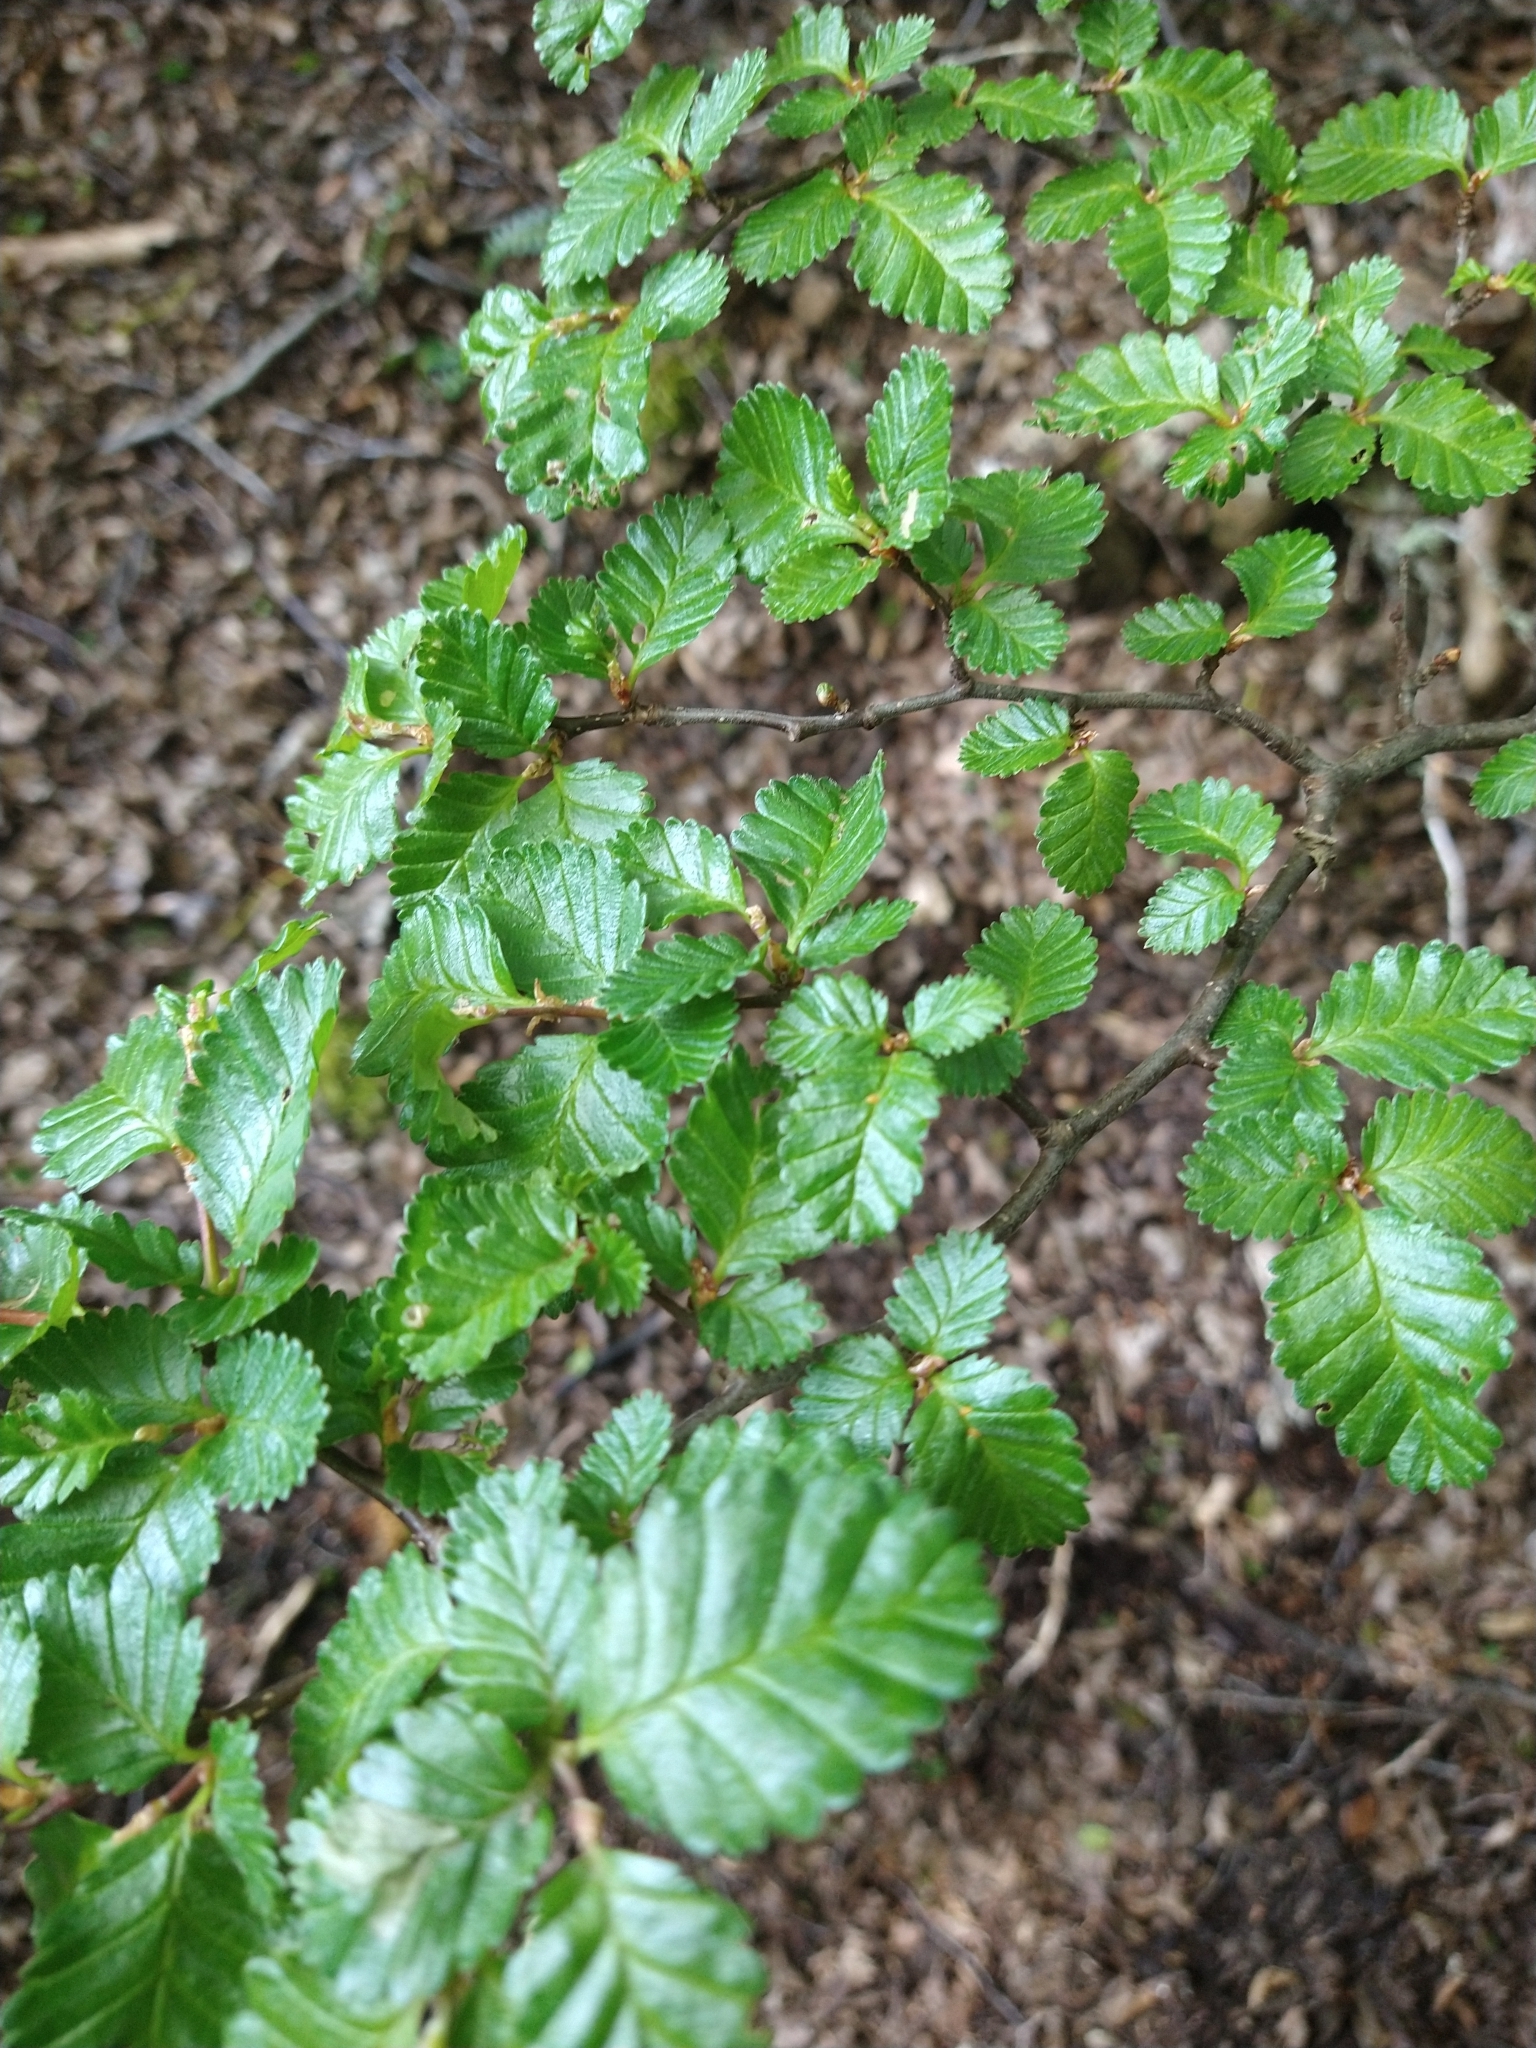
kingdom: Plantae
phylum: Tracheophyta
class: Magnoliopsida
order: Fagales
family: Nothofagaceae
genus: Nothofagus
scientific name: Nothofagus pumilio
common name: Lenga beech
